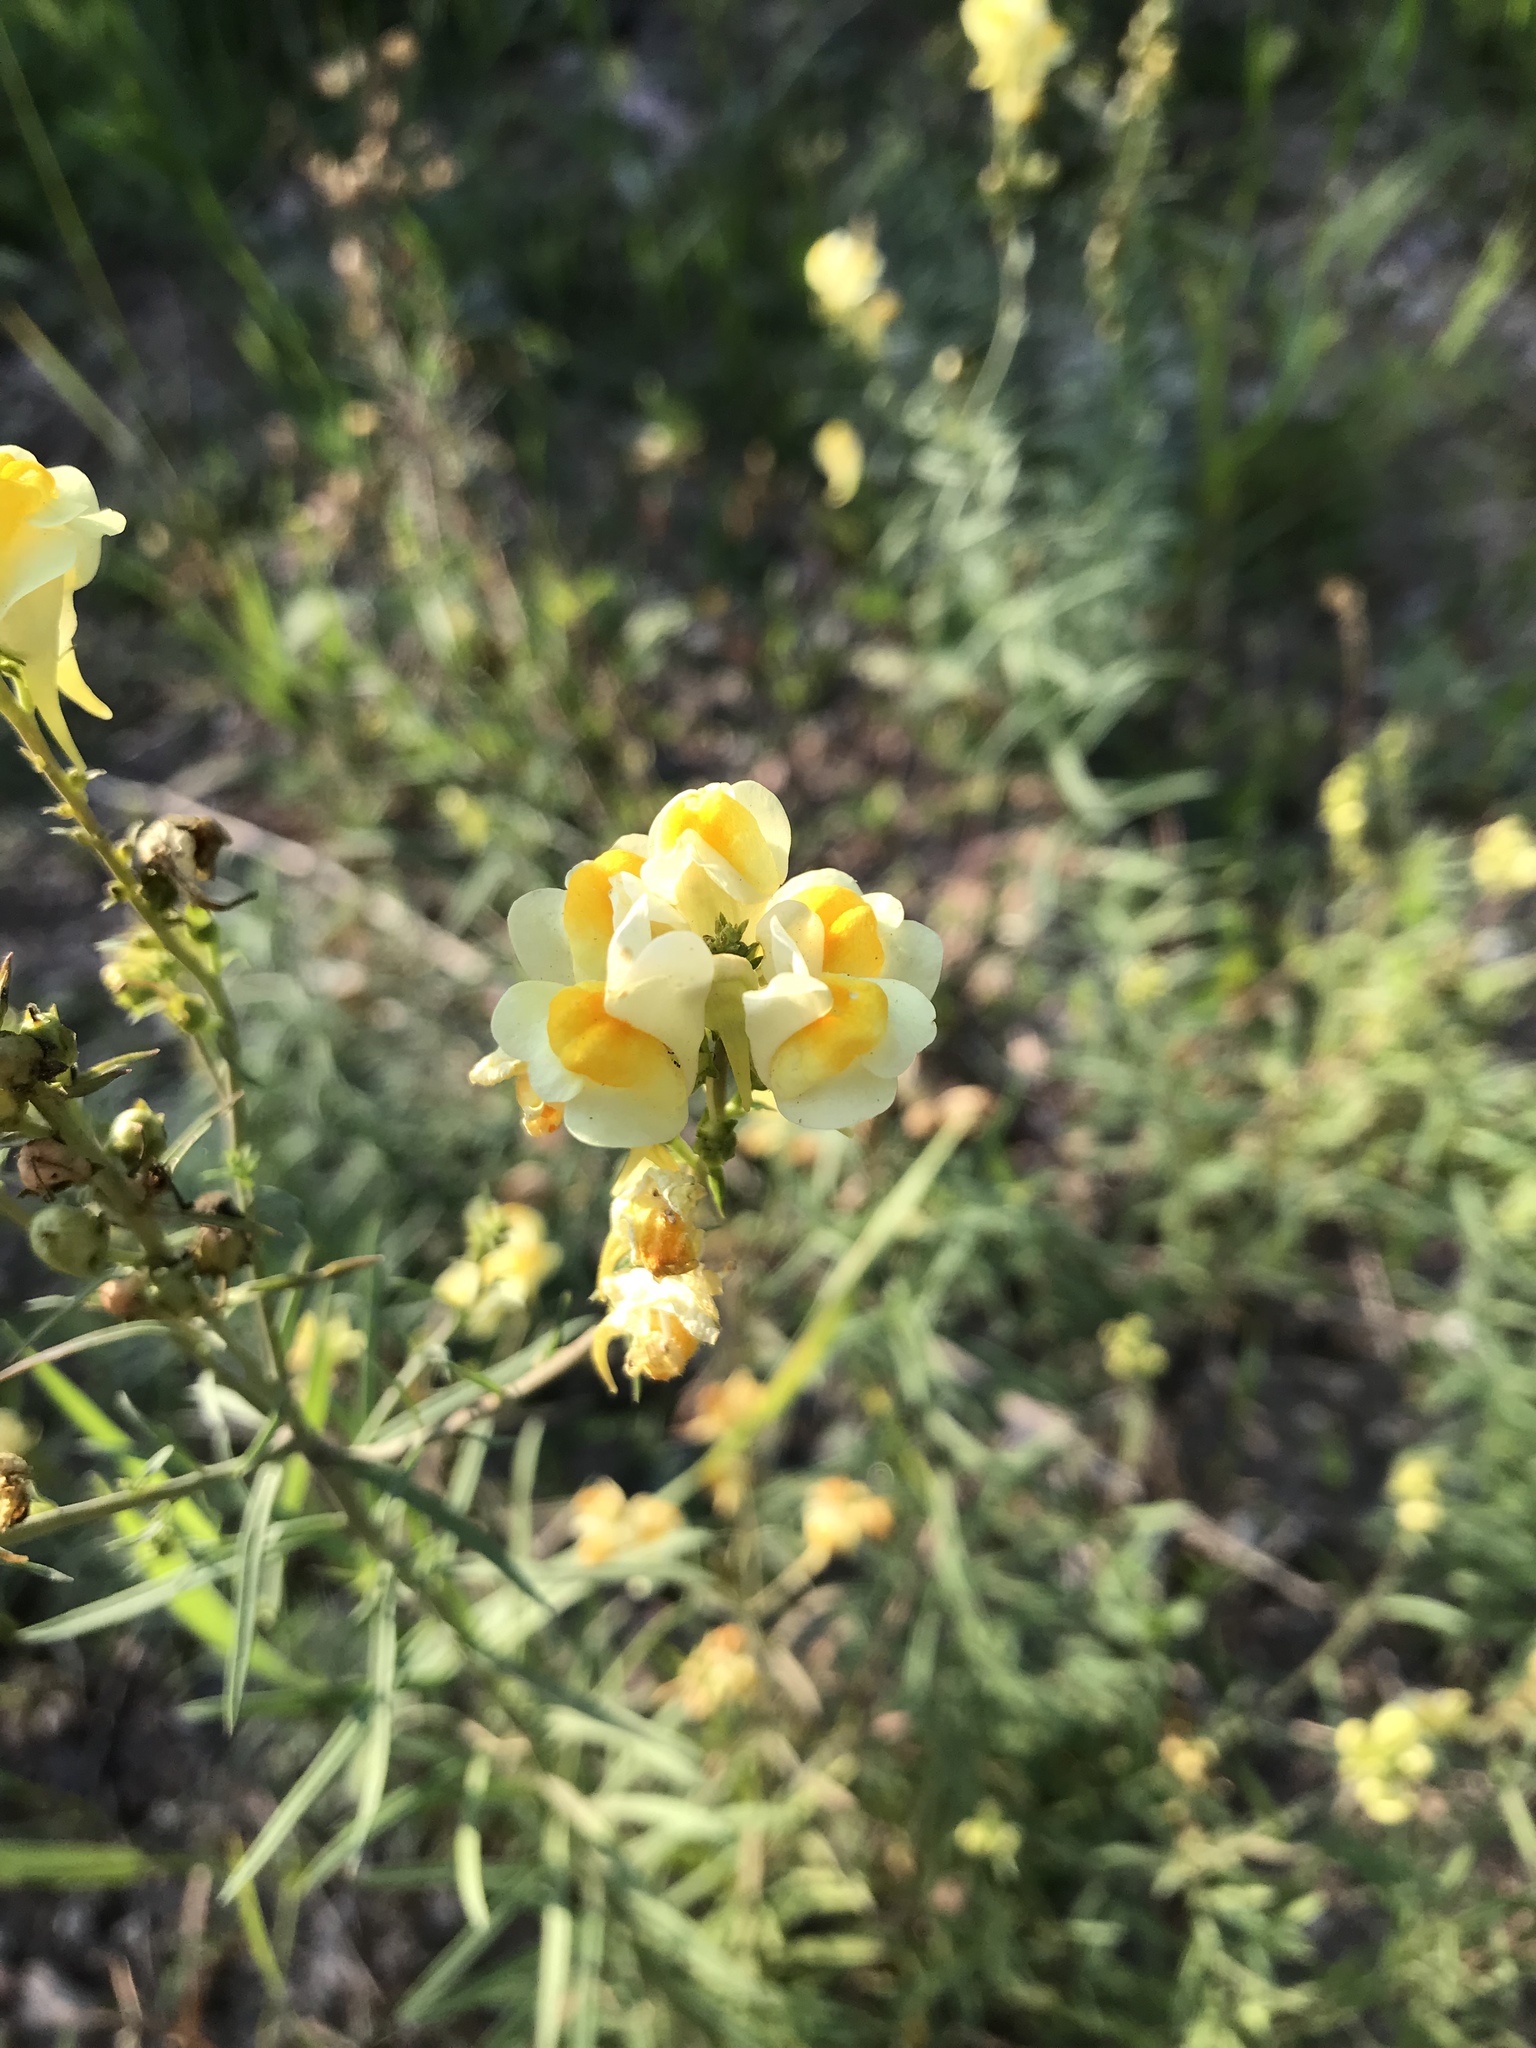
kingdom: Plantae
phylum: Tracheophyta
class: Magnoliopsida
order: Lamiales
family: Plantaginaceae
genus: Linaria
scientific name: Linaria vulgaris
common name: Butter and eggs
